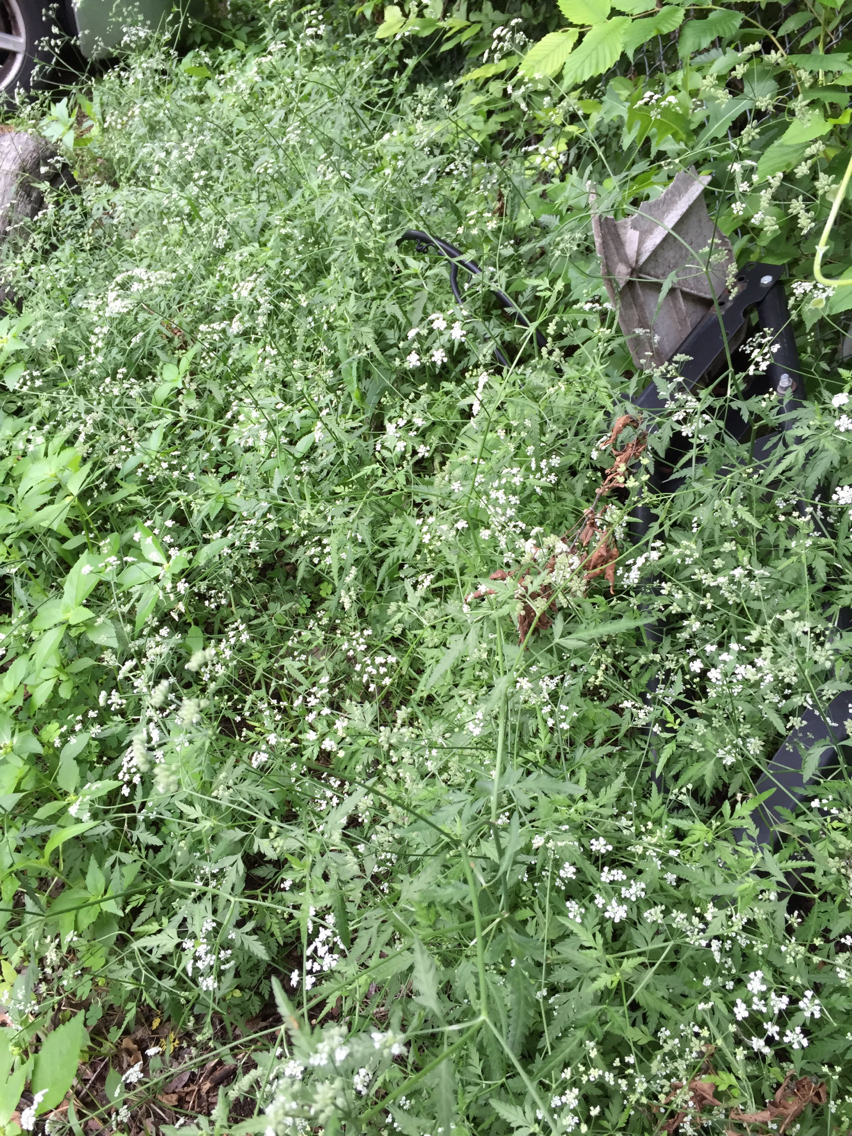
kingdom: Plantae
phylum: Tracheophyta
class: Magnoliopsida
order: Apiales
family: Apiaceae
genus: Torilis
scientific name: Torilis arvensis
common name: Spreading hedge-parsley
